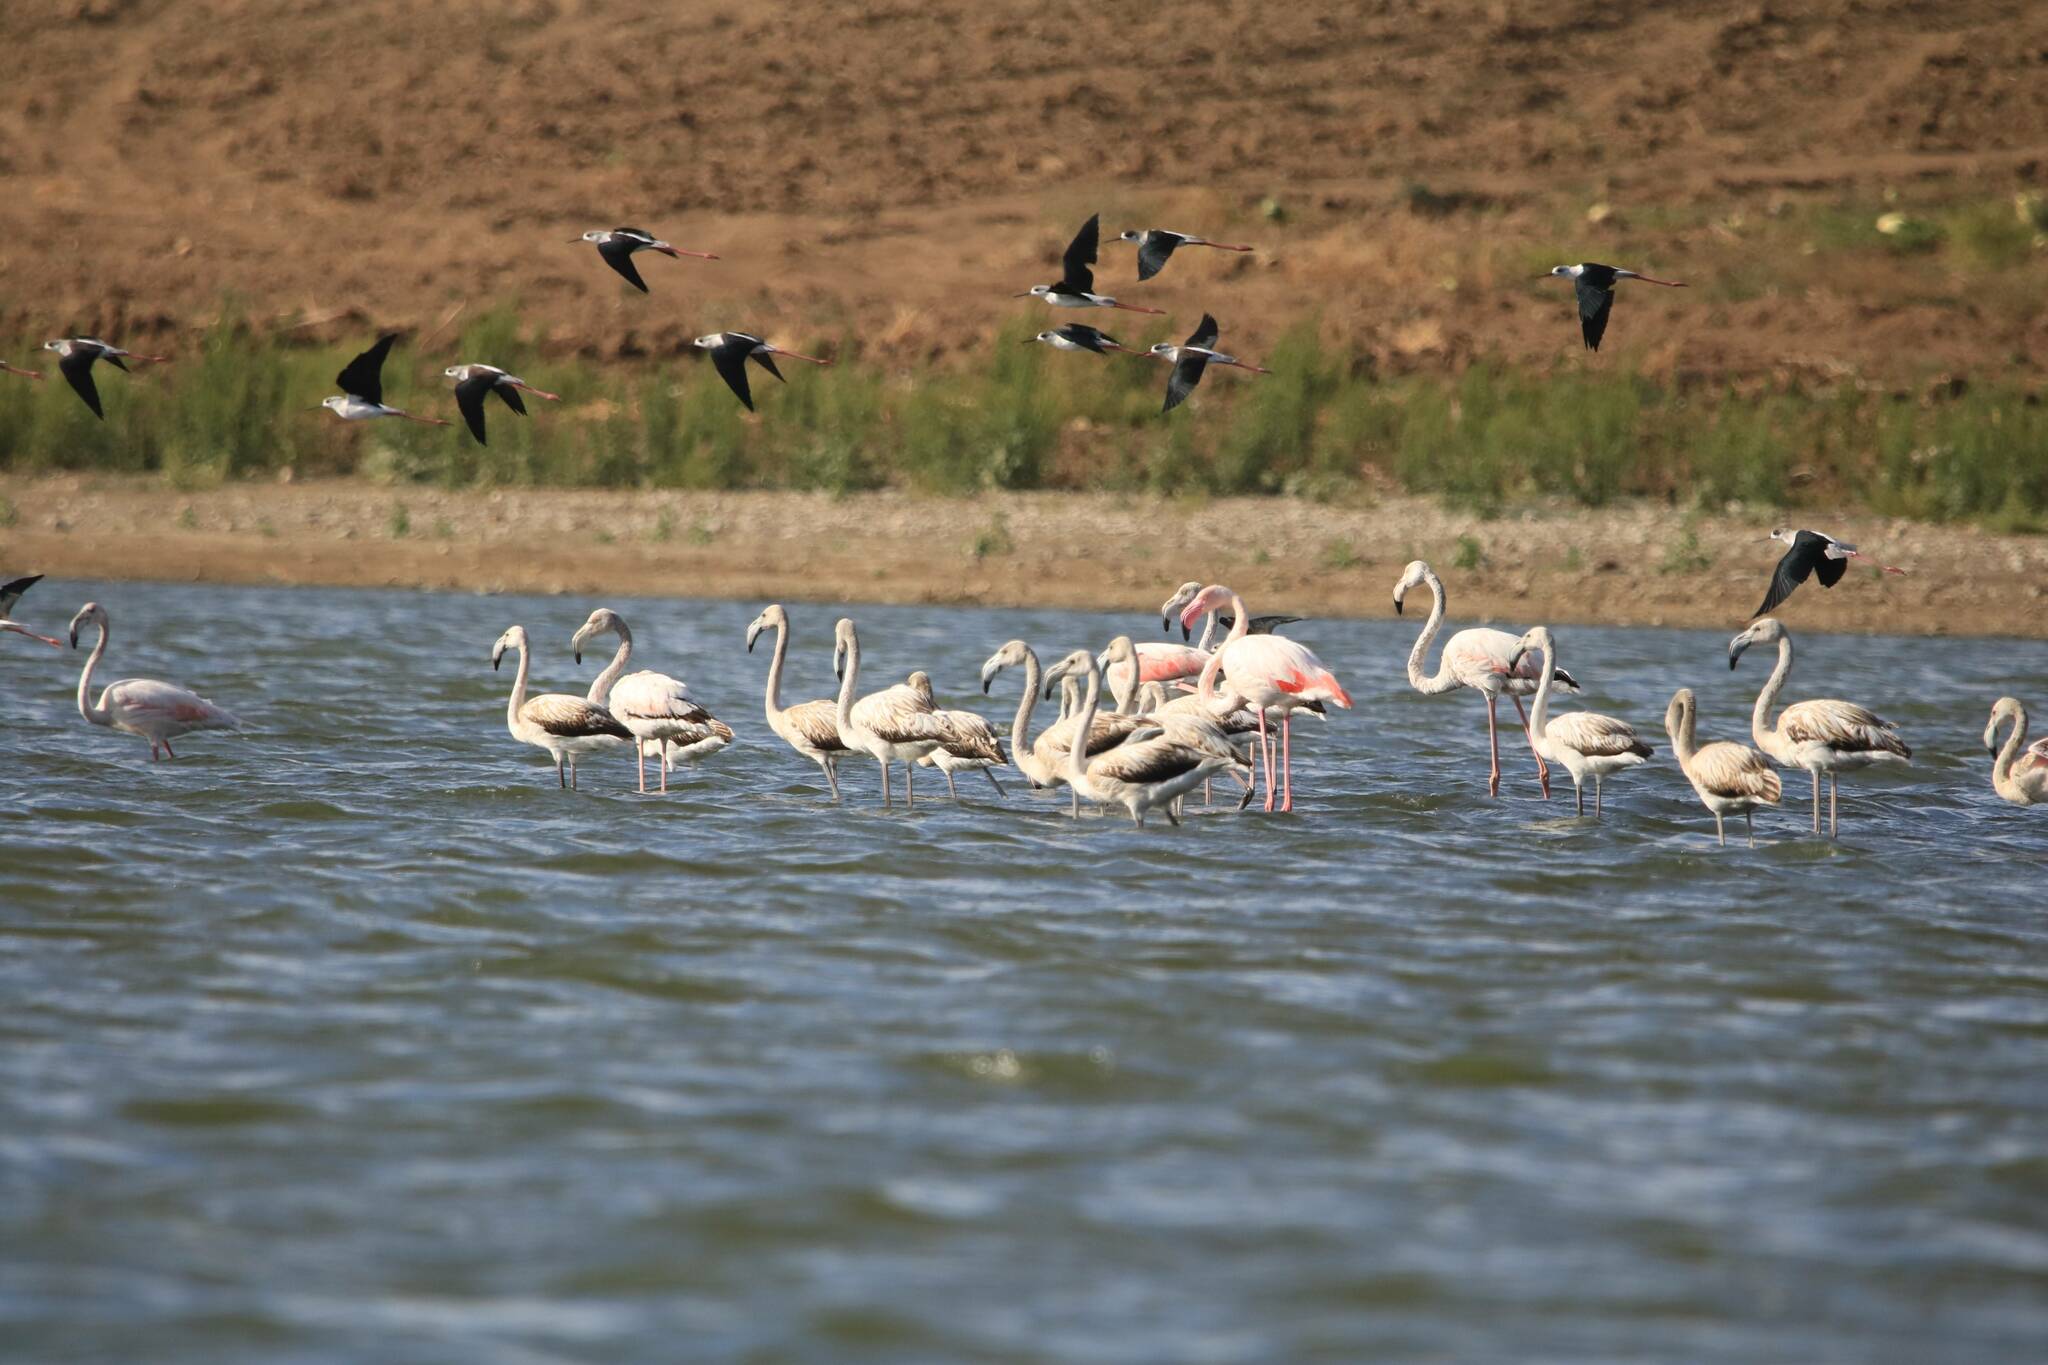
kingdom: Animalia
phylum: Chordata
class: Aves
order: Charadriiformes
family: Recurvirostridae
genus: Himantopus
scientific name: Himantopus himantopus
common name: Black-winged stilt
